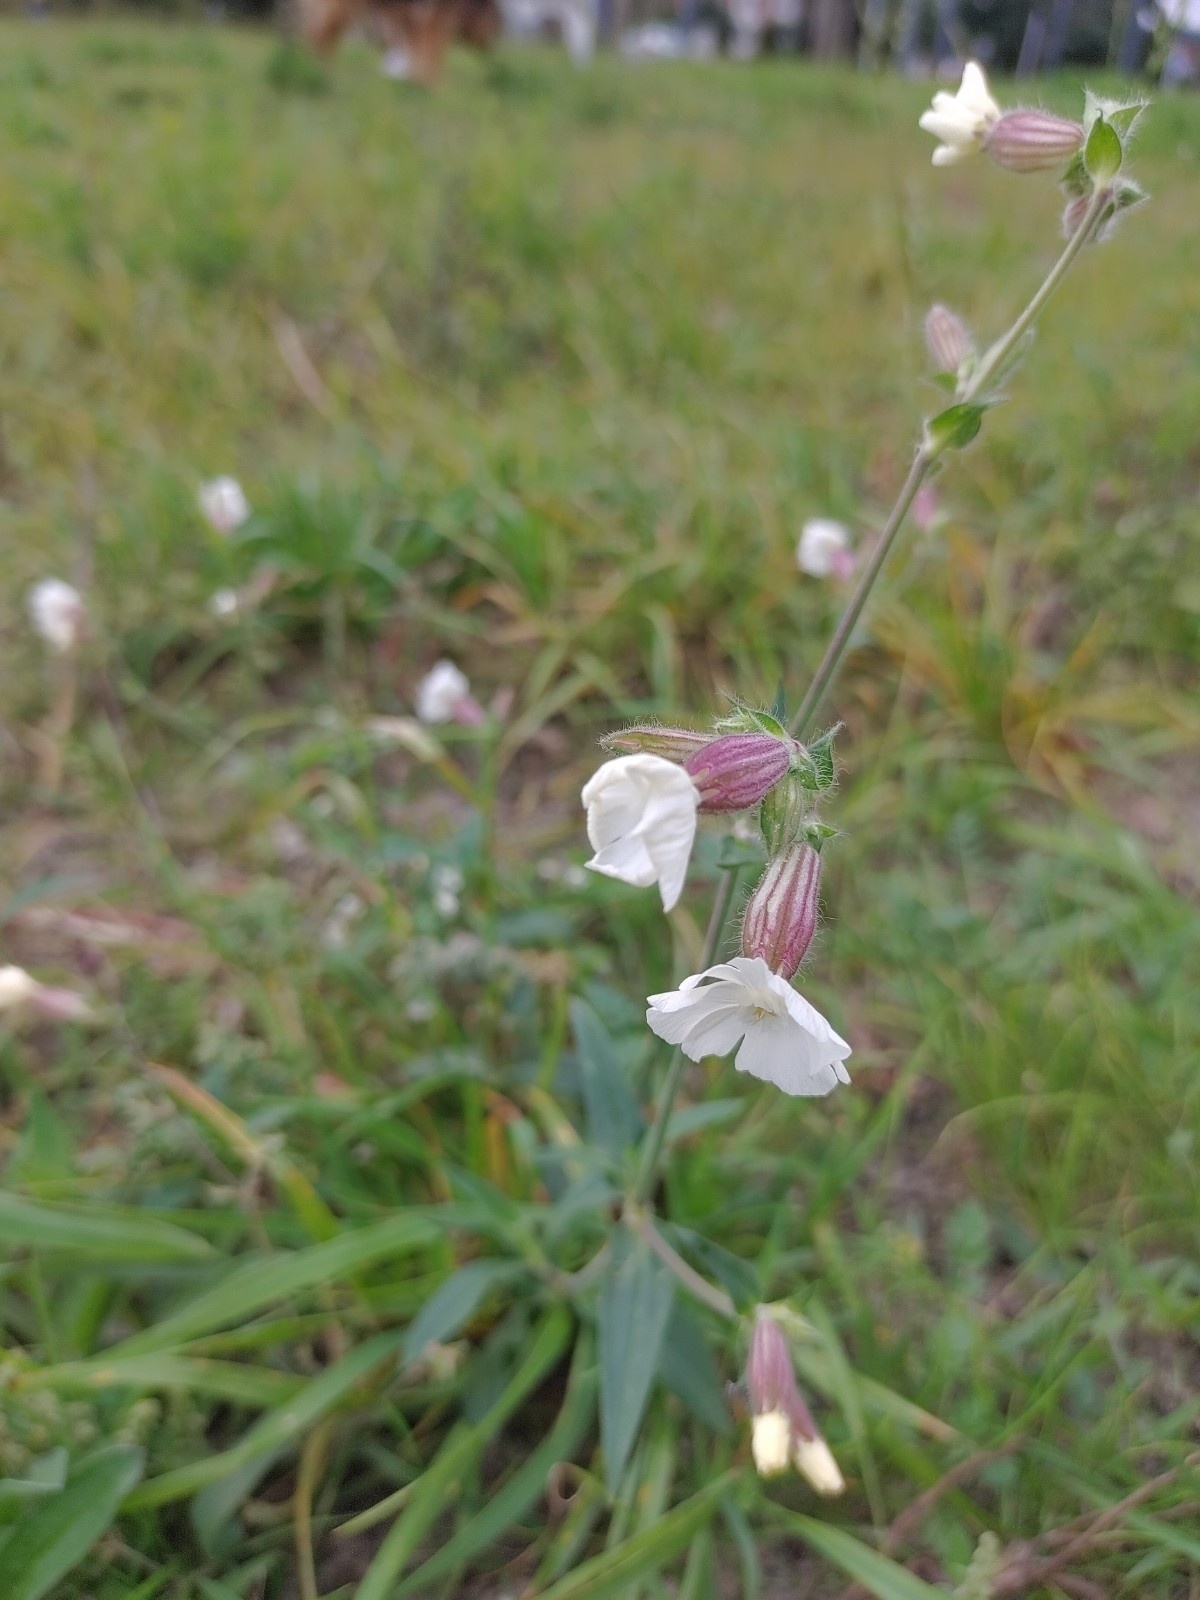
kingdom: Plantae
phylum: Tracheophyta
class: Magnoliopsida
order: Caryophyllales
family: Caryophyllaceae
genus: Silene
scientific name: Silene latifolia
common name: White campion
